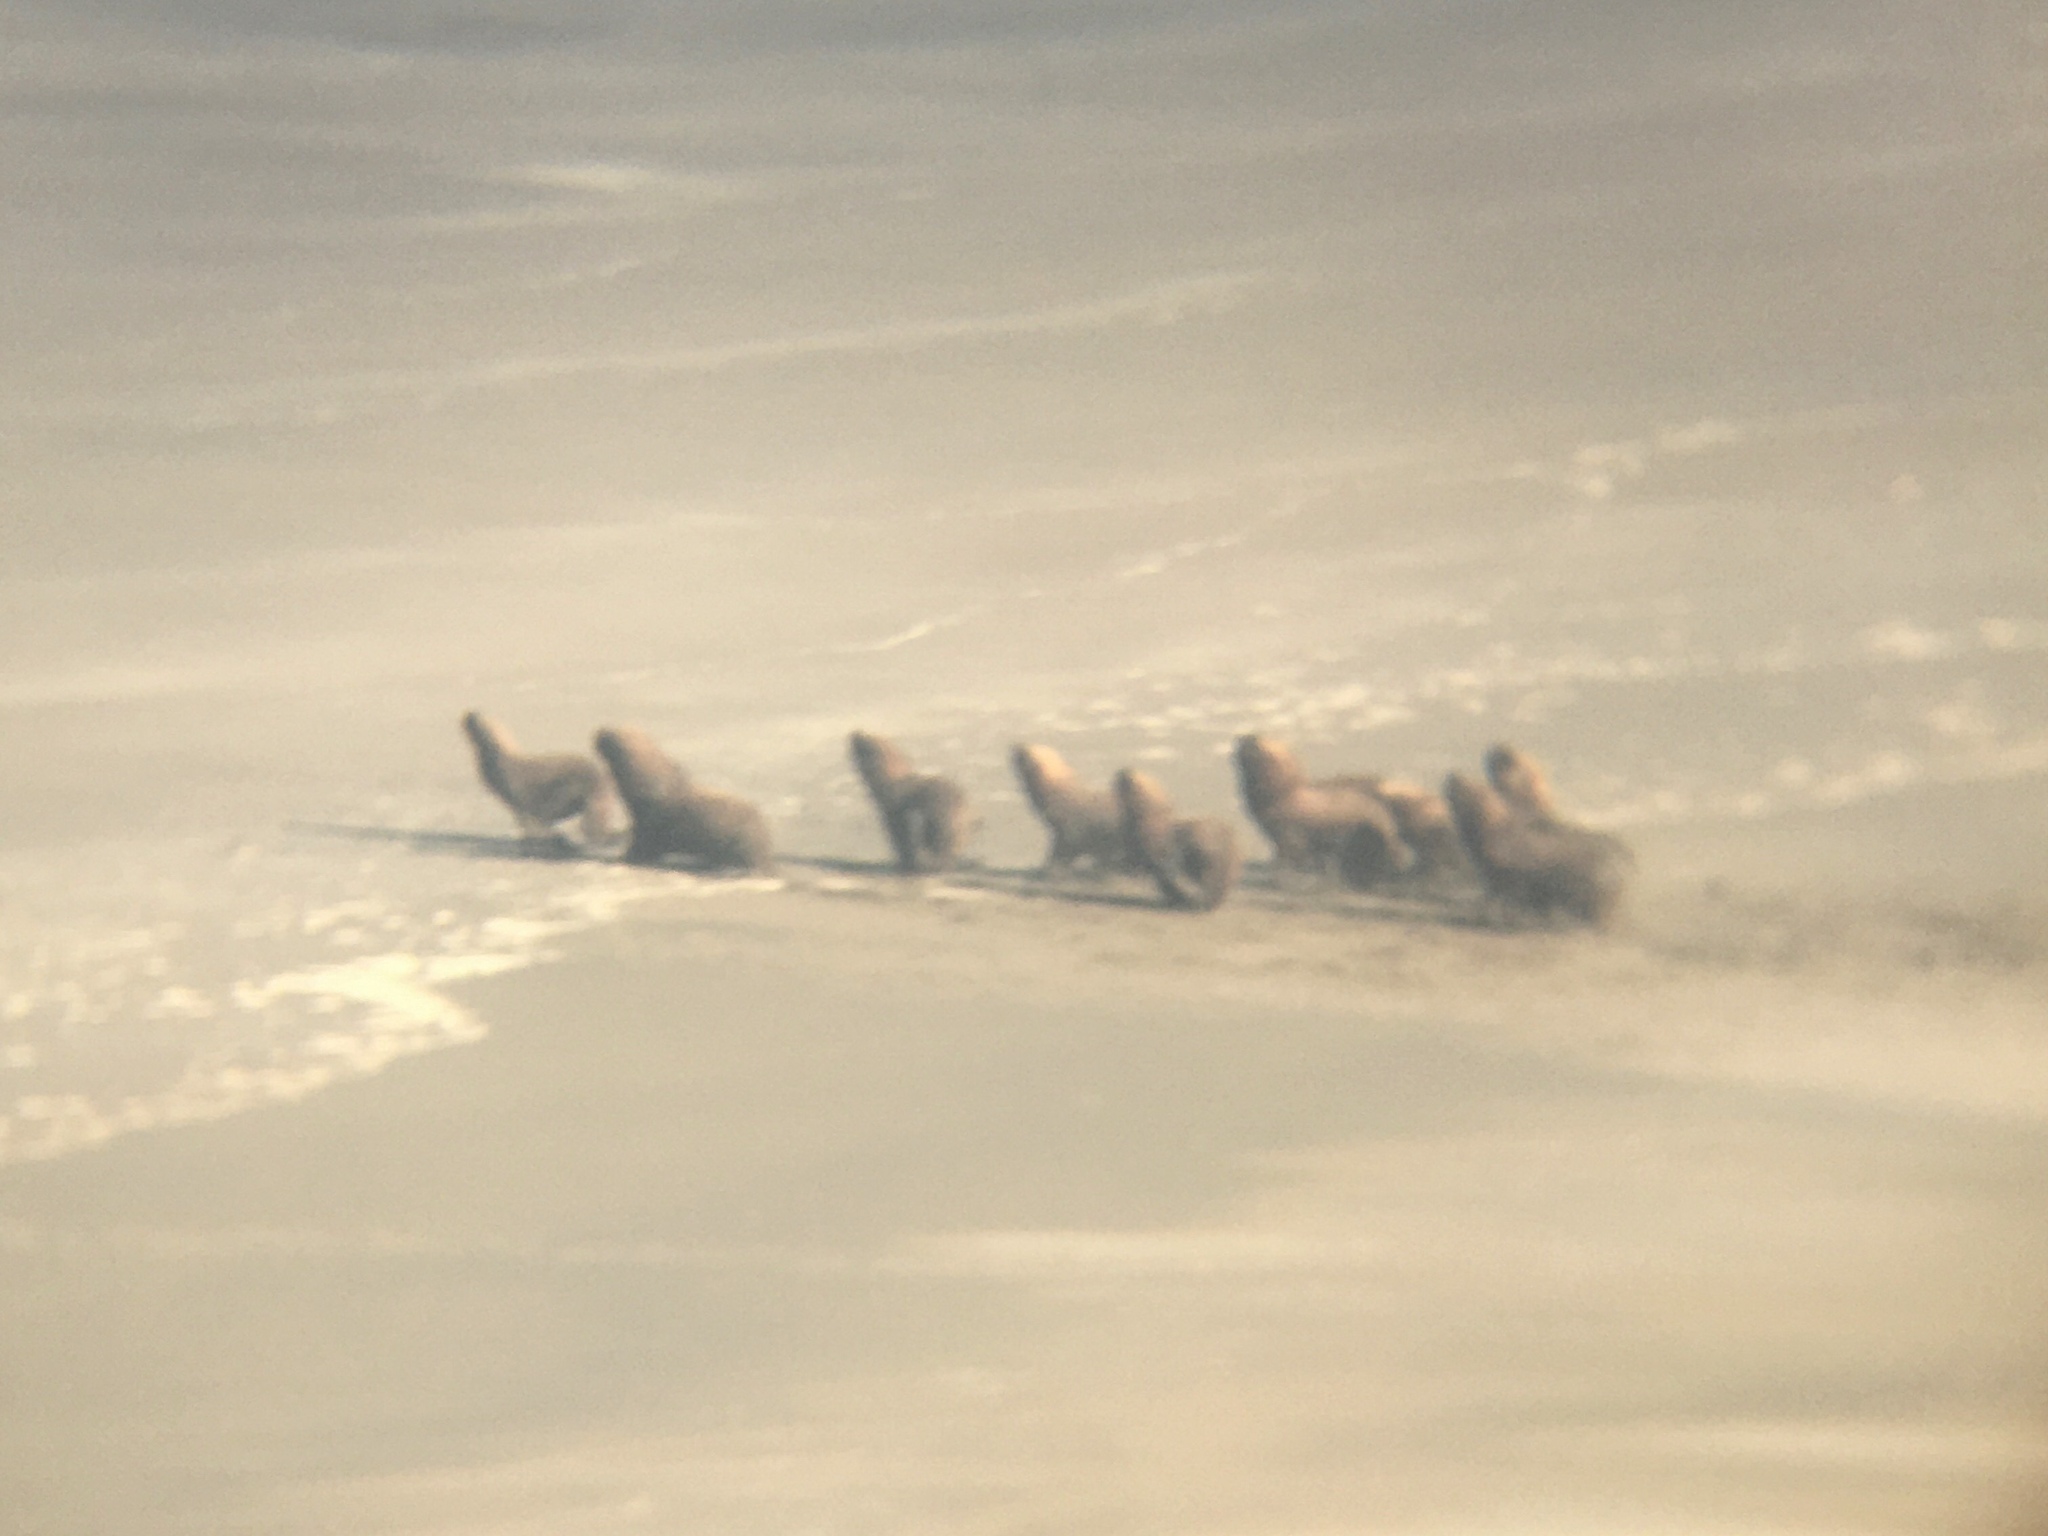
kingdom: Animalia
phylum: Chordata
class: Mammalia
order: Carnivora
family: Otariidae
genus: Otaria
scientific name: Otaria byronia
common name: South american sea lion
